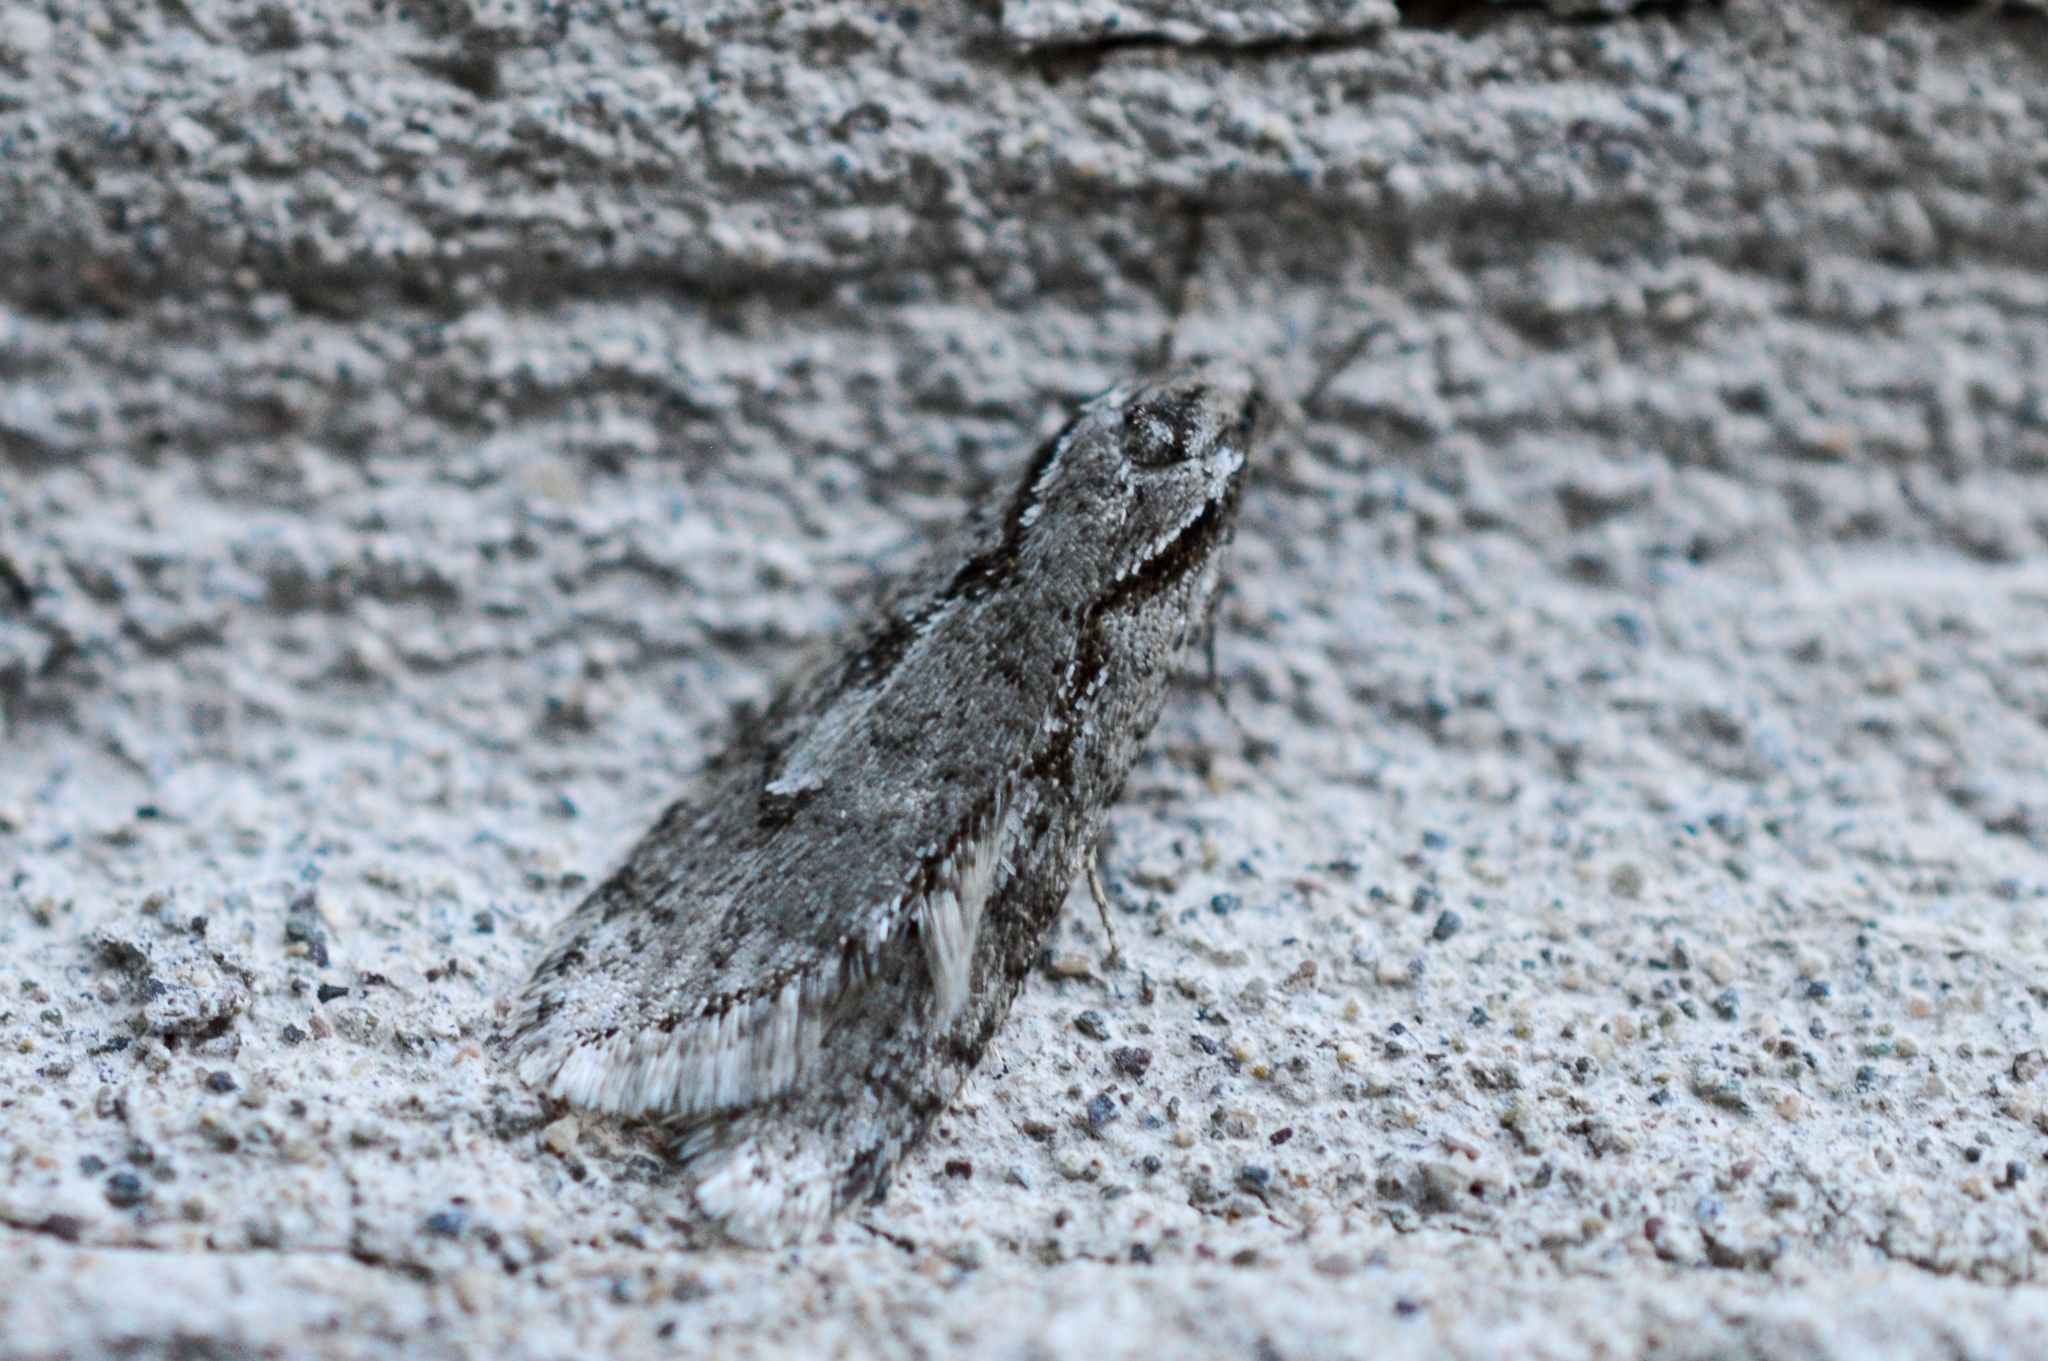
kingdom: Animalia
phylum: Arthropoda
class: Insecta
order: Lepidoptera
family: Depressariidae
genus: Semioscopis
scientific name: Semioscopis avellanella
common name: Early flat-body
